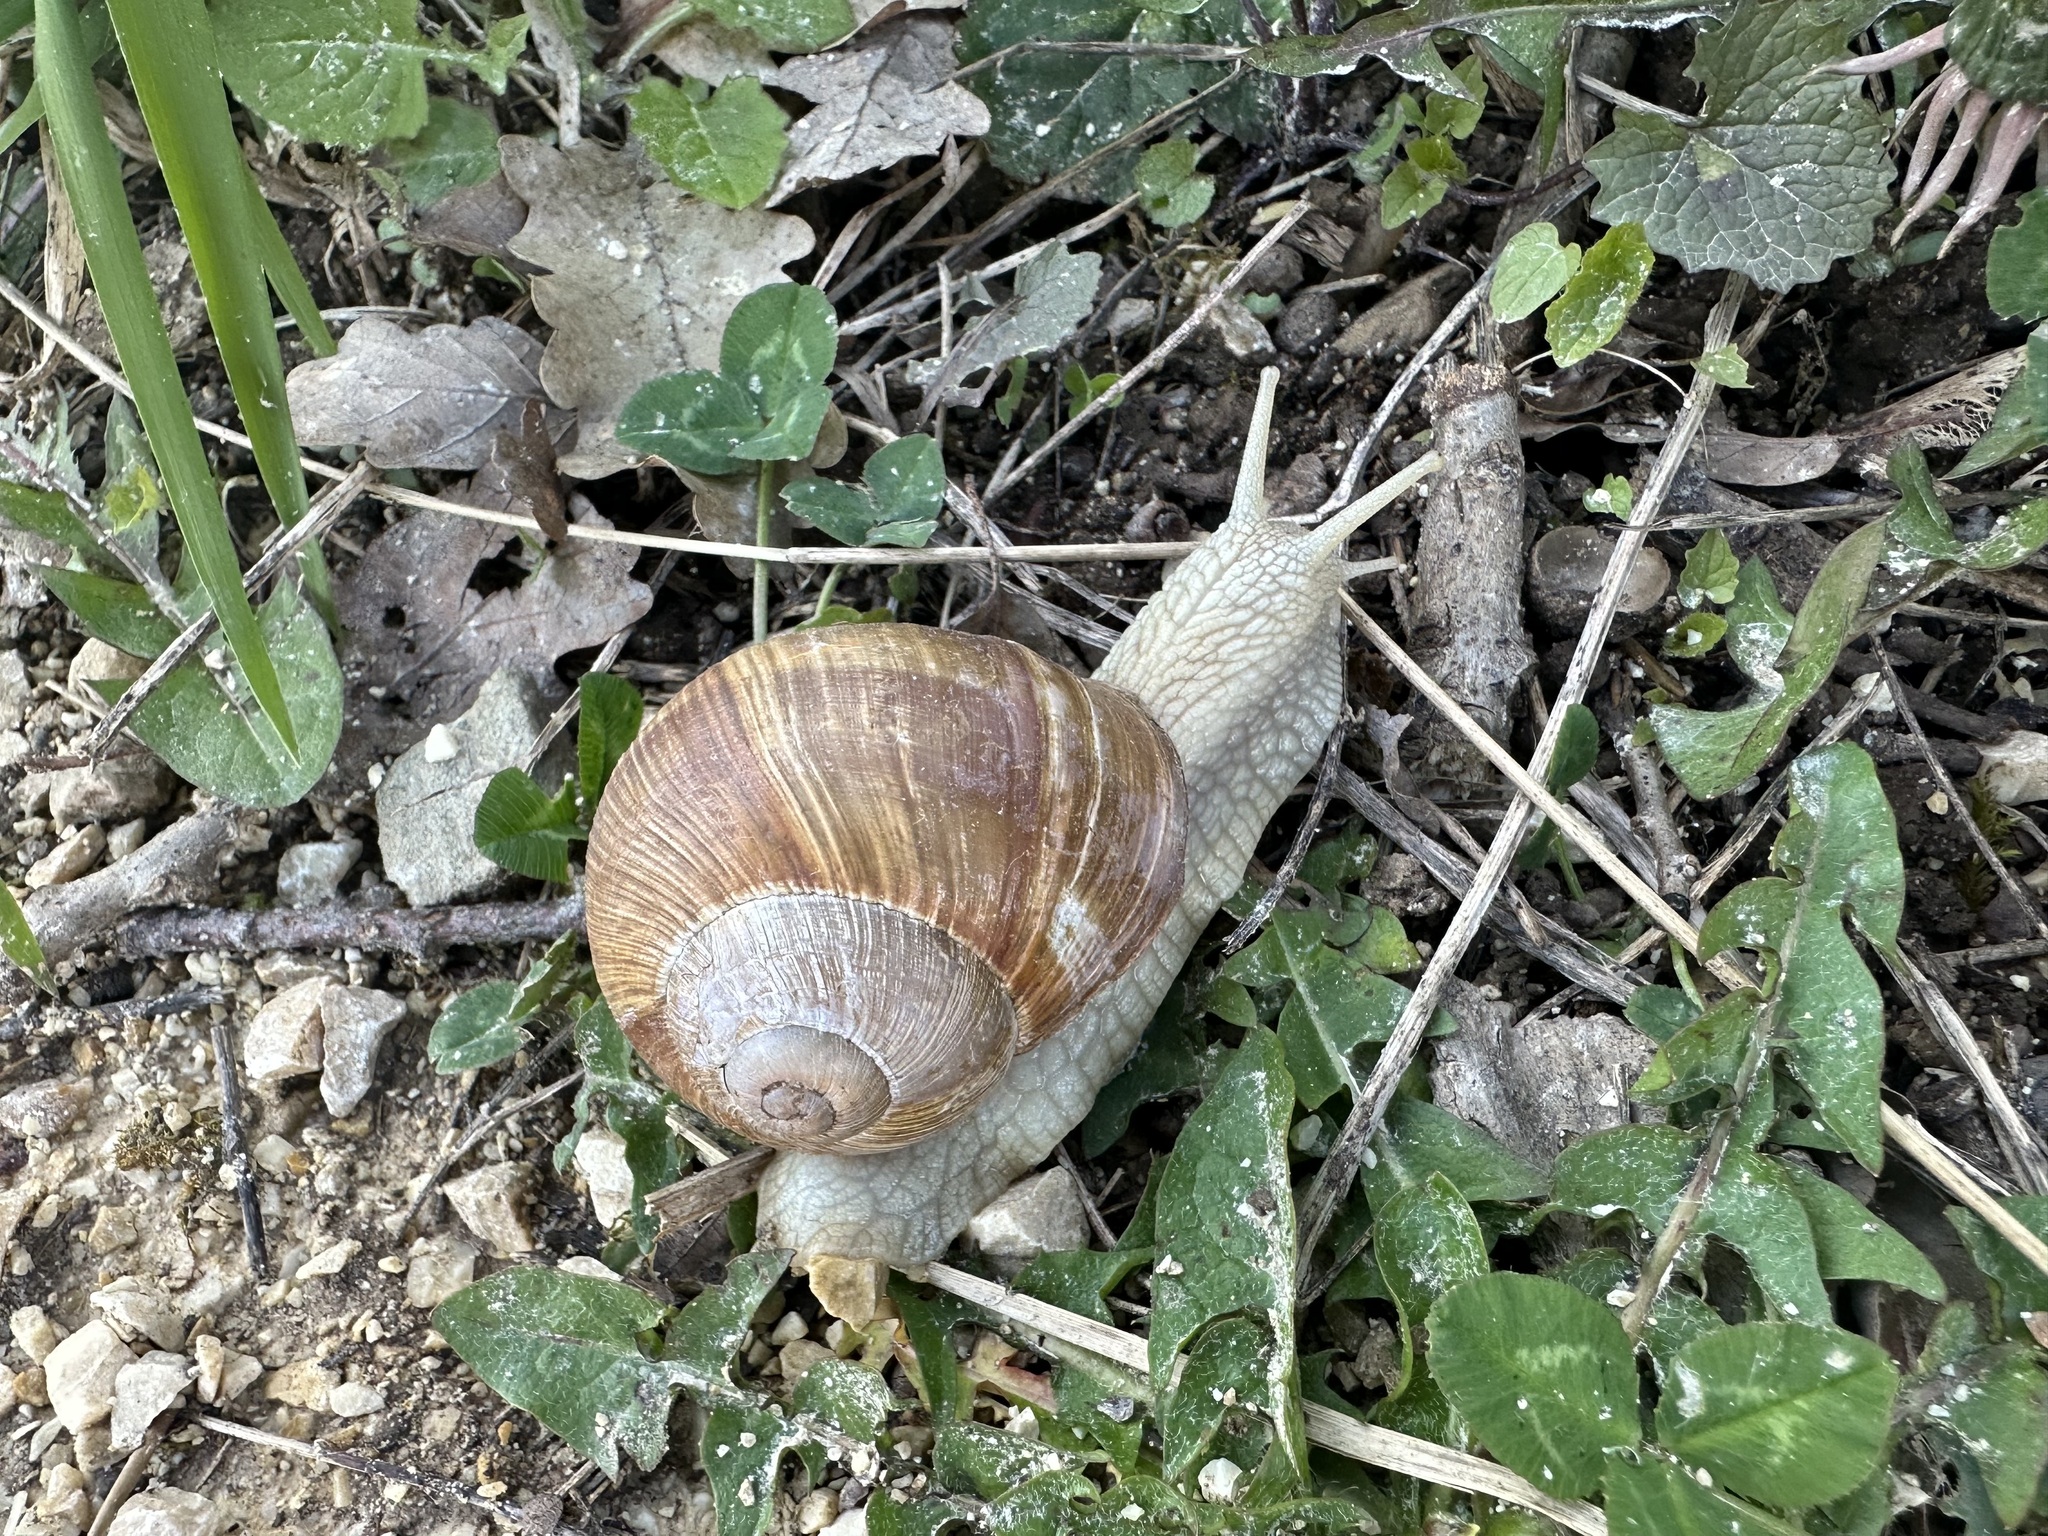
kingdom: Animalia
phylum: Mollusca
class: Gastropoda
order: Stylommatophora
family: Helicidae
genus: Helix
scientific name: Helix pomatia
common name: Roman snail
